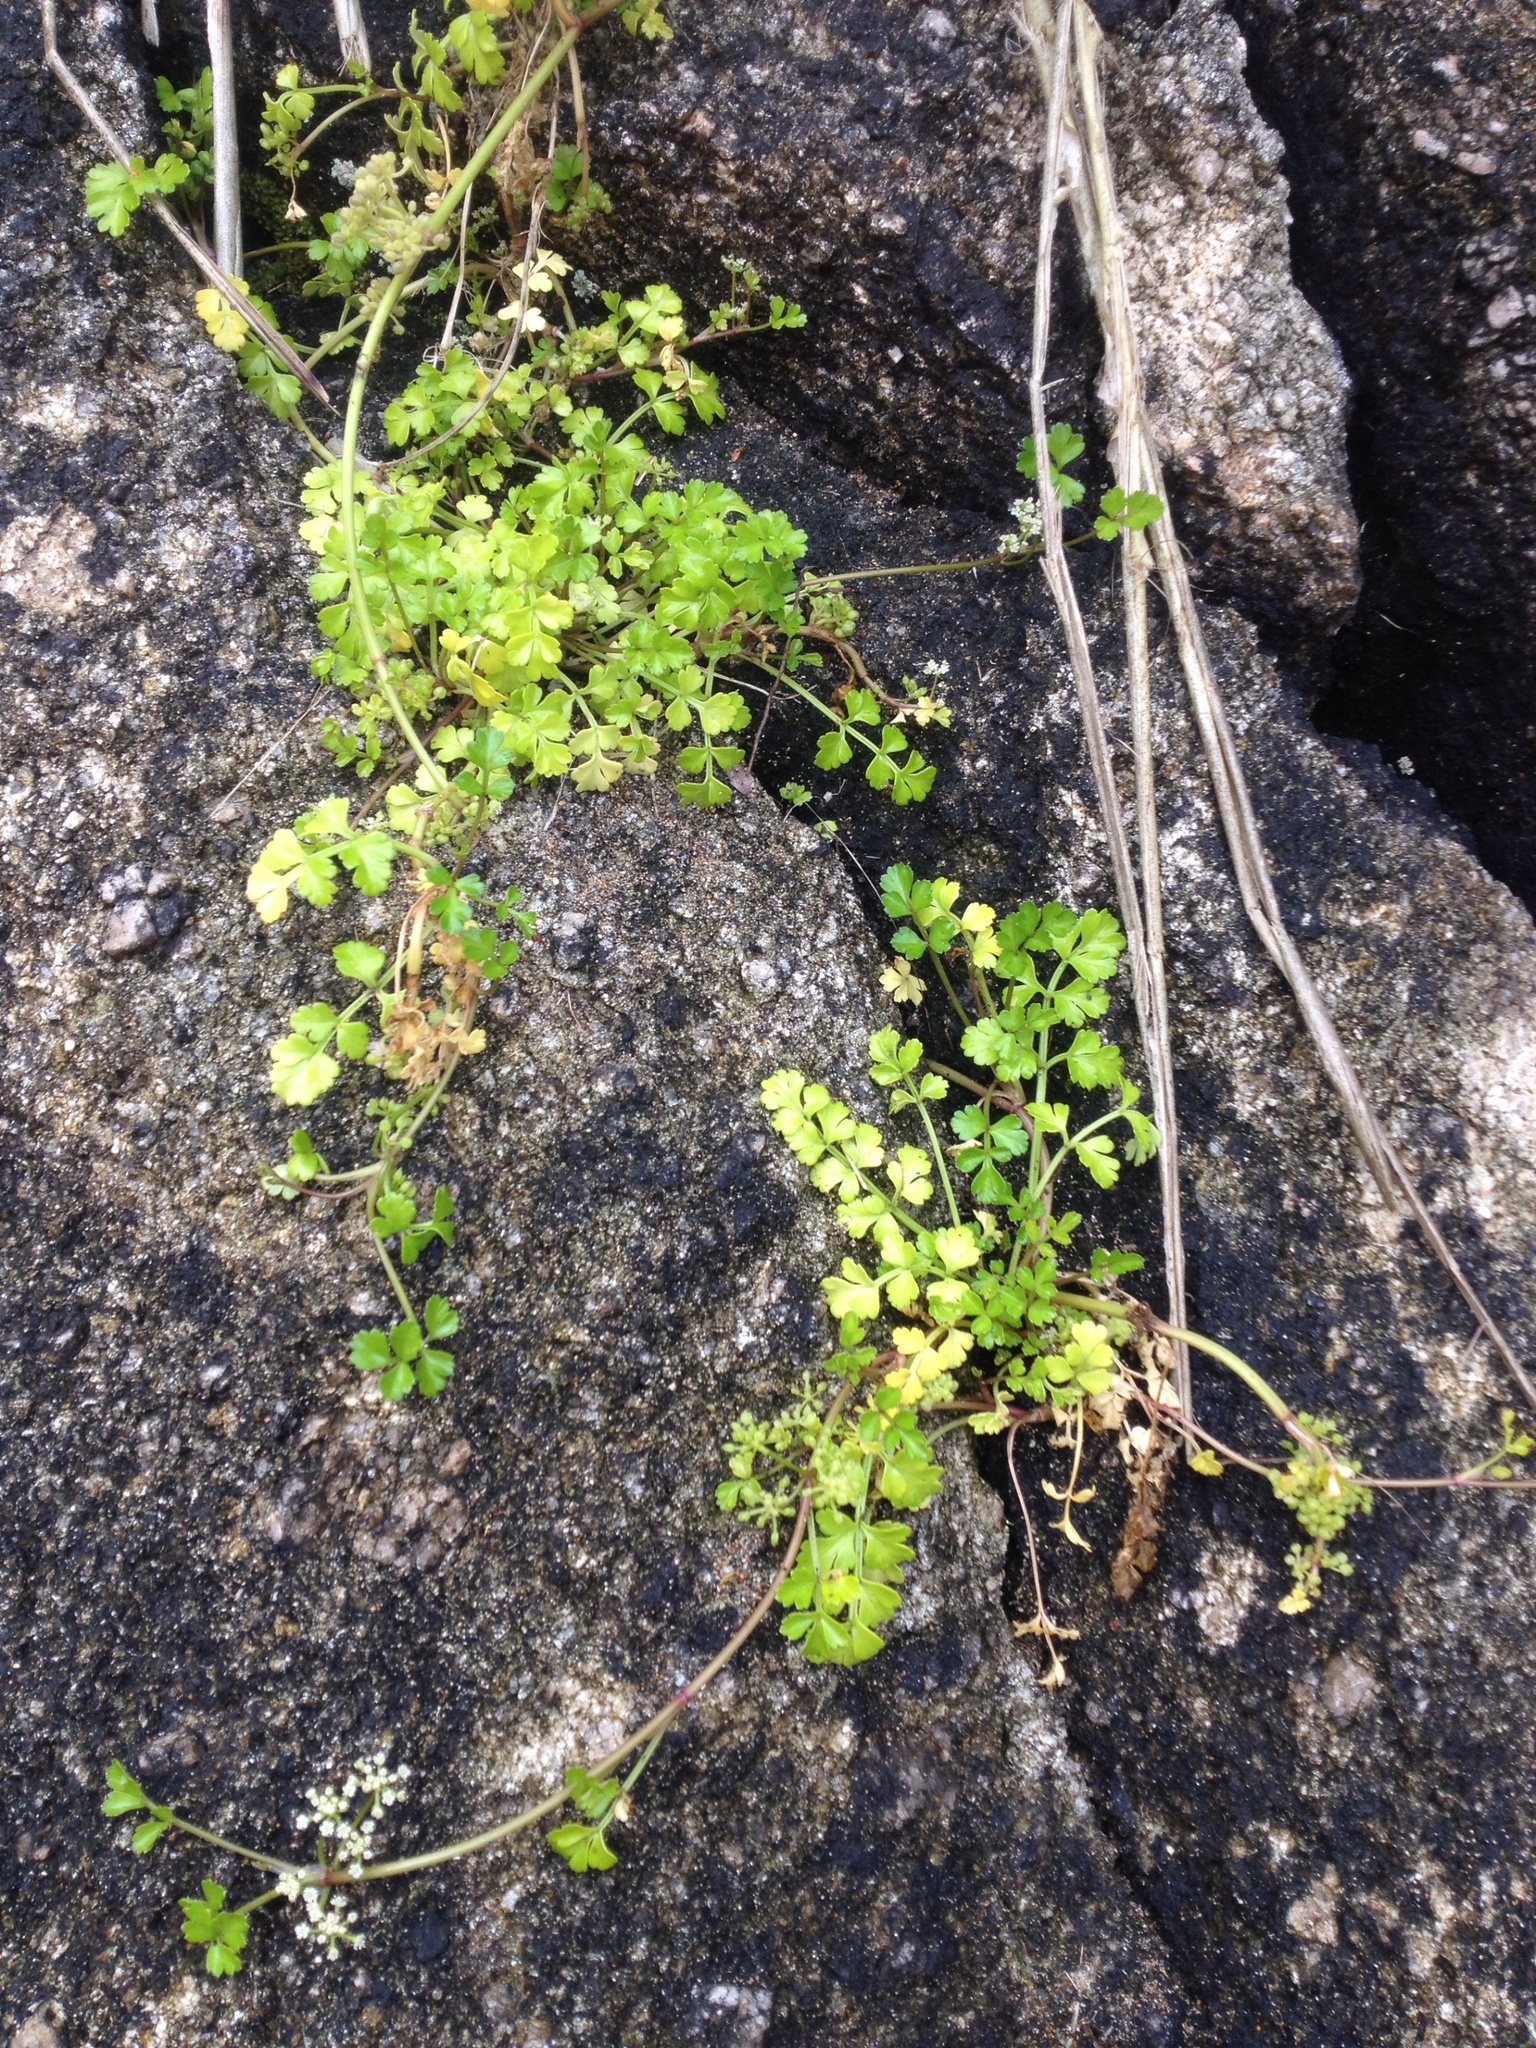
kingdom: Plantae
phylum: Tracheophyta
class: Magnoliopsida
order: Apiales
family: Apiaceae
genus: Apium
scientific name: Apium prostratum
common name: Prostrate marshwort
